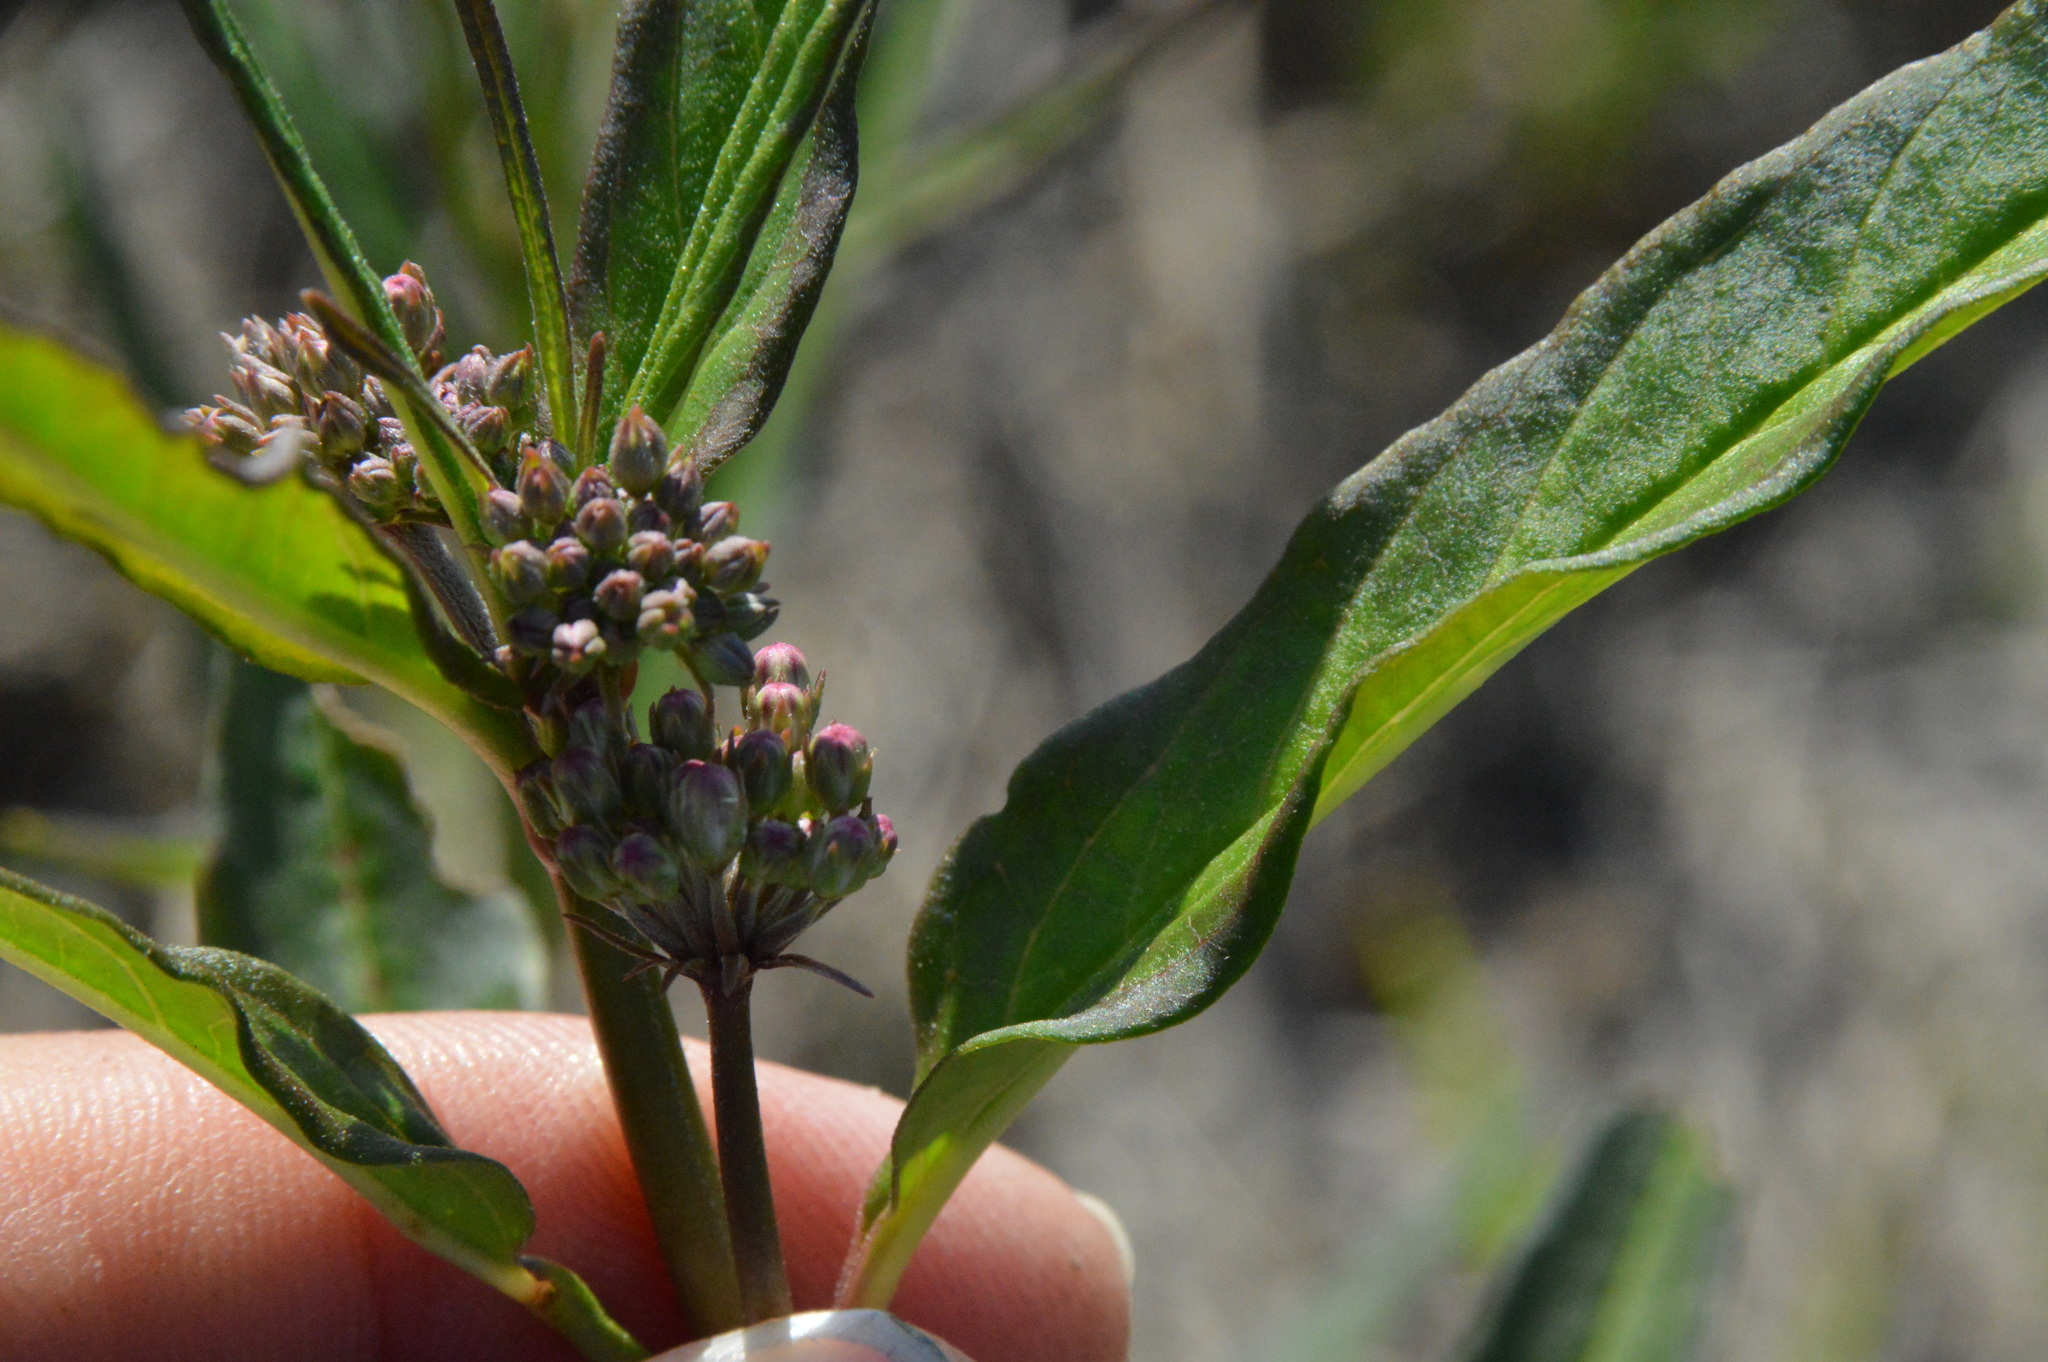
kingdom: Plantae
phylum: Tracheophyta
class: Magnoliopsida
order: Gentianales
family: Apocynaceae
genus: Asclepias
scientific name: Asclepias perennis
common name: Smooth-seed milkweed
